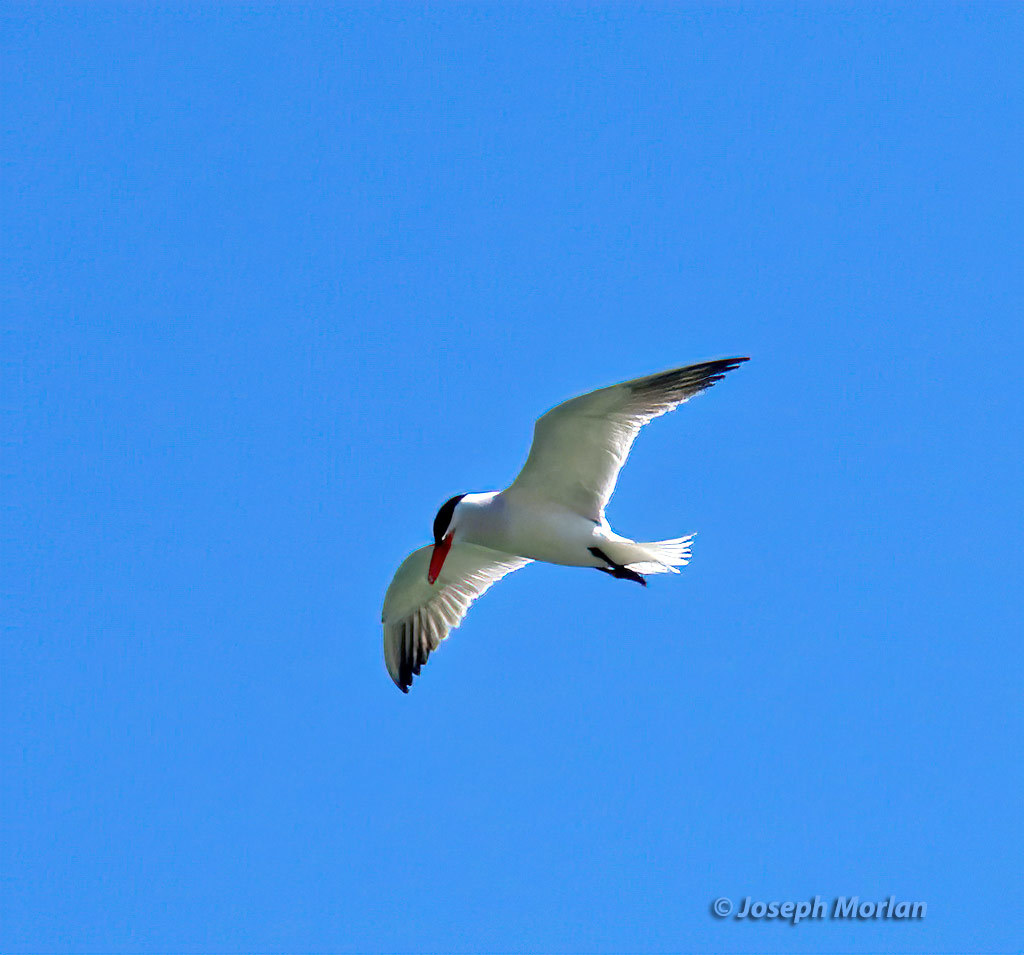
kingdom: Animalia
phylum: Chordata
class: Aves
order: Charadriiformes
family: Laridae
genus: Hydroprogne
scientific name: Hydroprogne caspia
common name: Caspian tern
